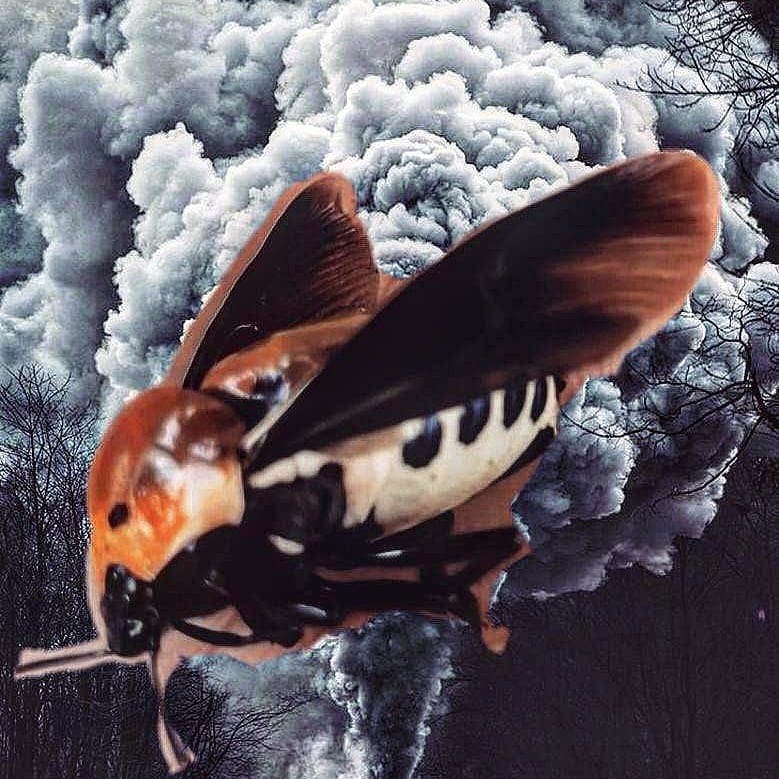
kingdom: Animalia
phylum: Arthropoda
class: Insecta
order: Hemiptera
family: Scutelleridae
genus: Augocoris
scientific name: Augocoris gomesii
